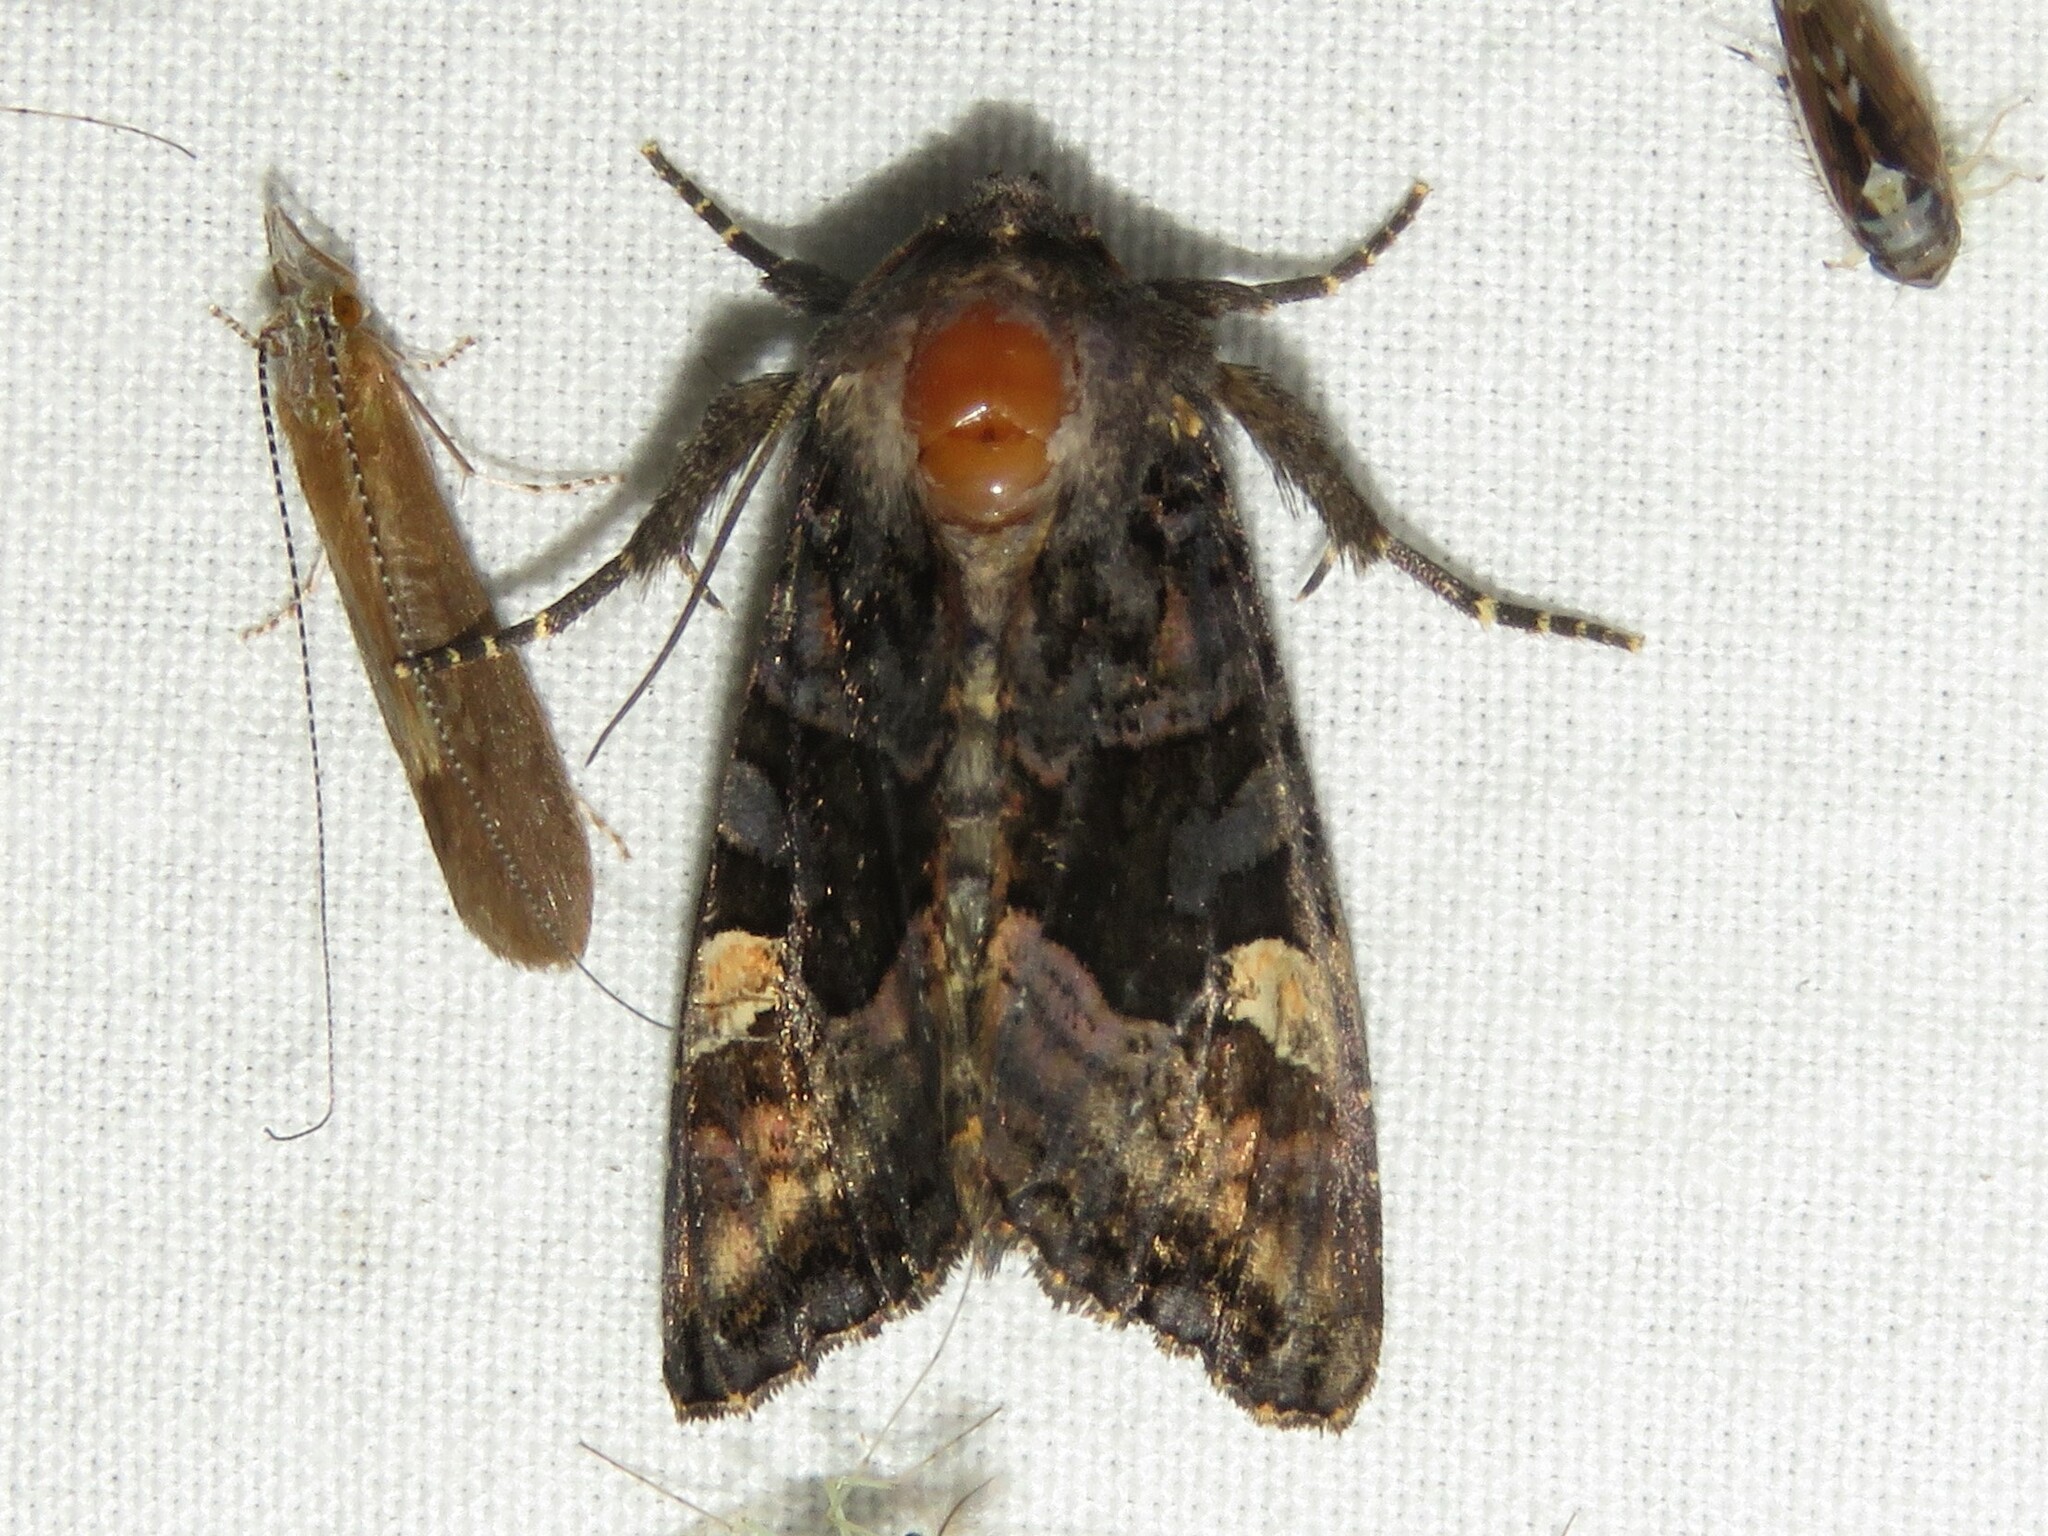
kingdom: Animalia
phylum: Arthropoda
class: Insecta
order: Lepidoptera
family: Noctuidae
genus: Euplexia
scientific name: Euplexia benesimilis
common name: American angle shades
